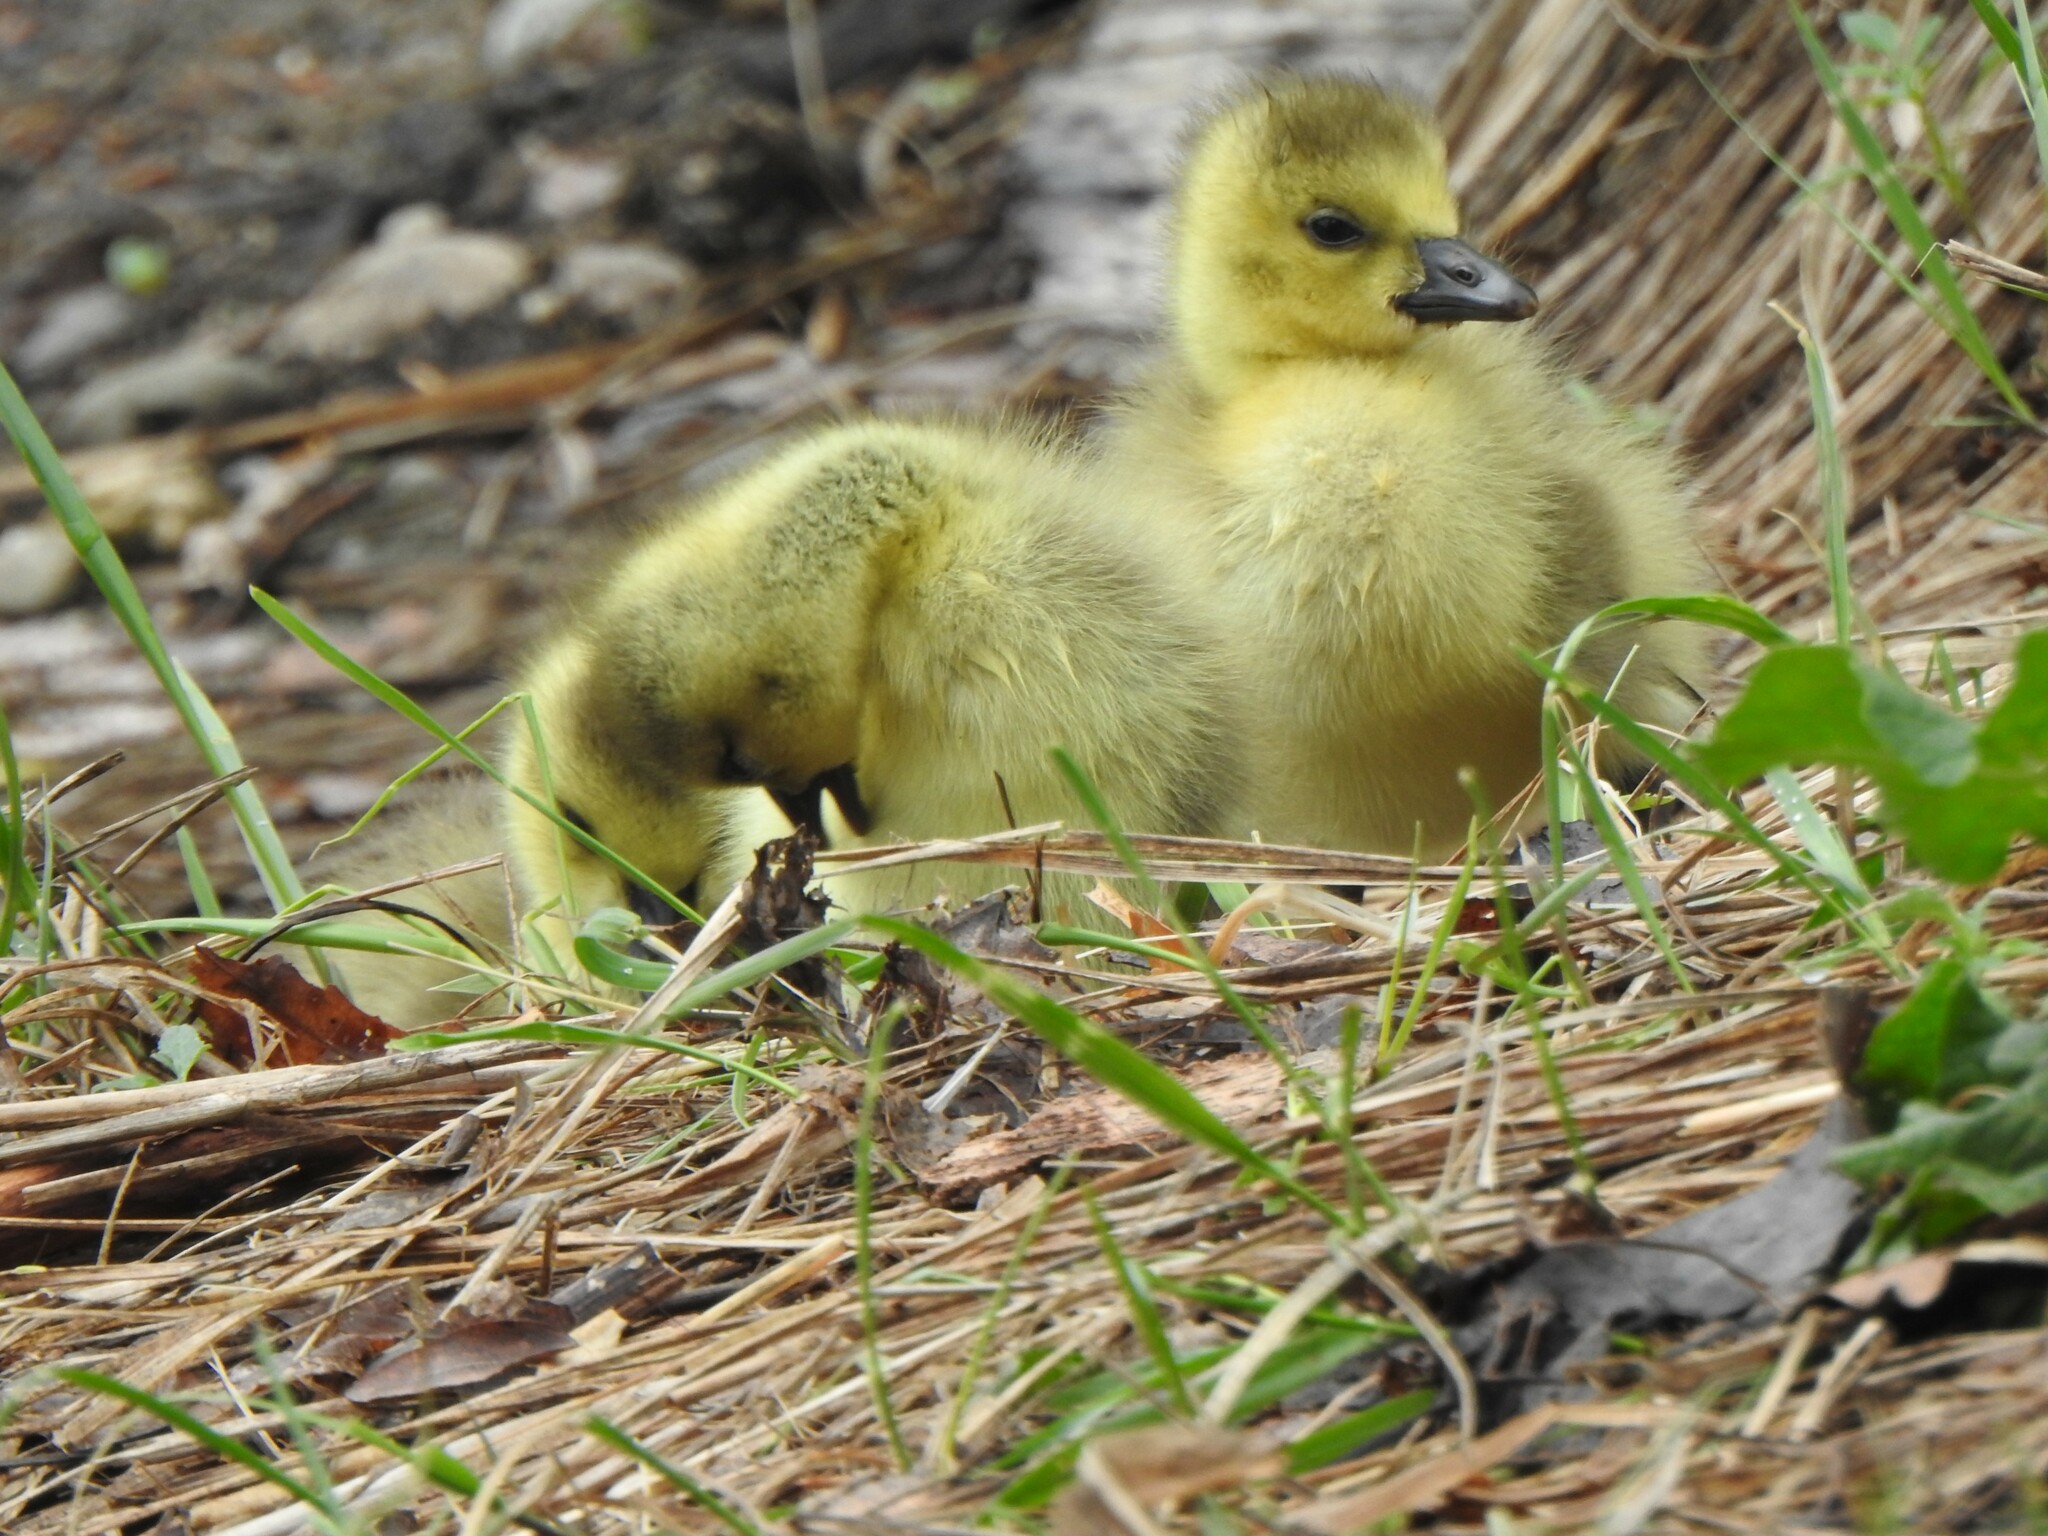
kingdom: Animalia
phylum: Chordata
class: Aves
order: Anseriformes
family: Anatidae
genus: Branta
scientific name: Branta canadensis
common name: Canada goose
